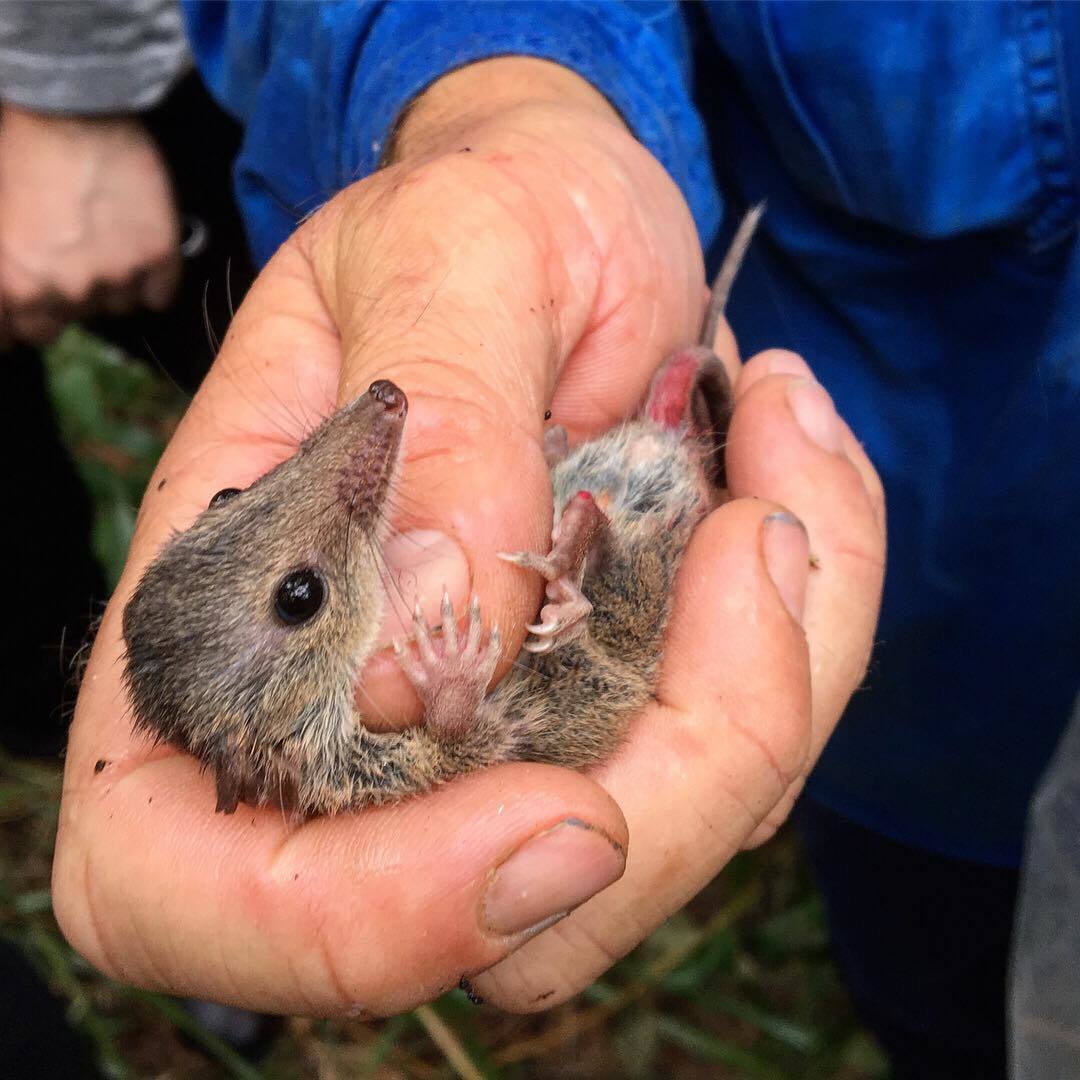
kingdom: Animalia
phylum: Chordata
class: Mammalia
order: Dasyuromorphia
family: Dasyuridae
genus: Antechinus
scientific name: Antechinus stuartii
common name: Brown antechinus
